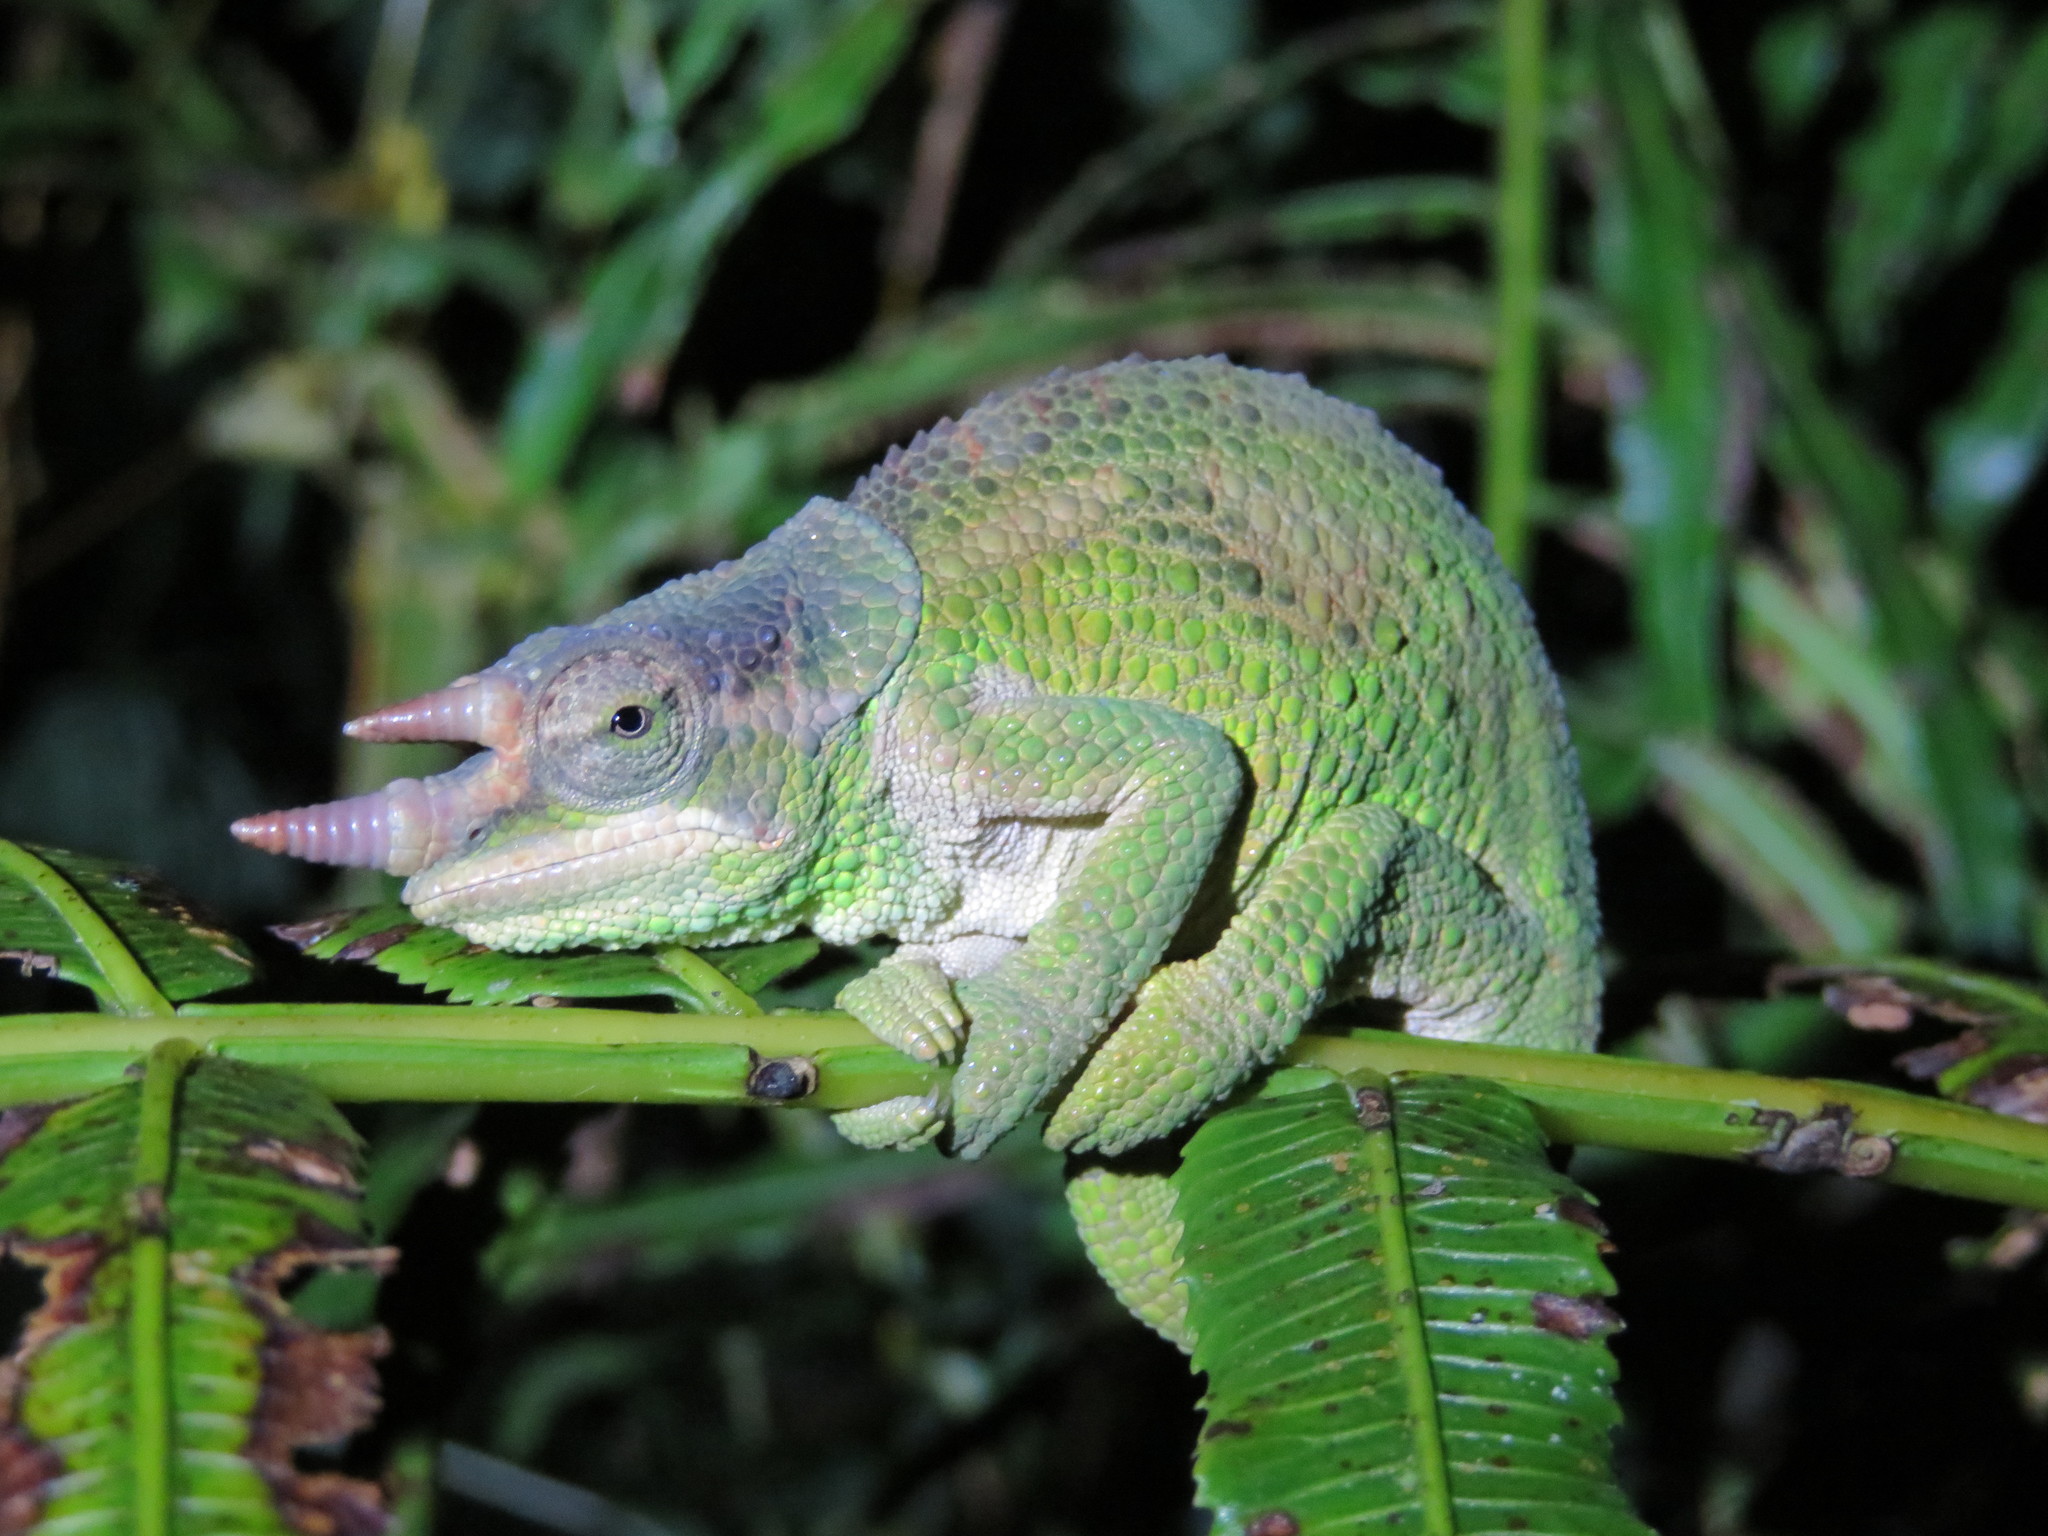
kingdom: Animalia
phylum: Chordata
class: Squamata
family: Chamaeleonidae
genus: Trioceros
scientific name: Trioceros werneri
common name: Wemer's chameleon
